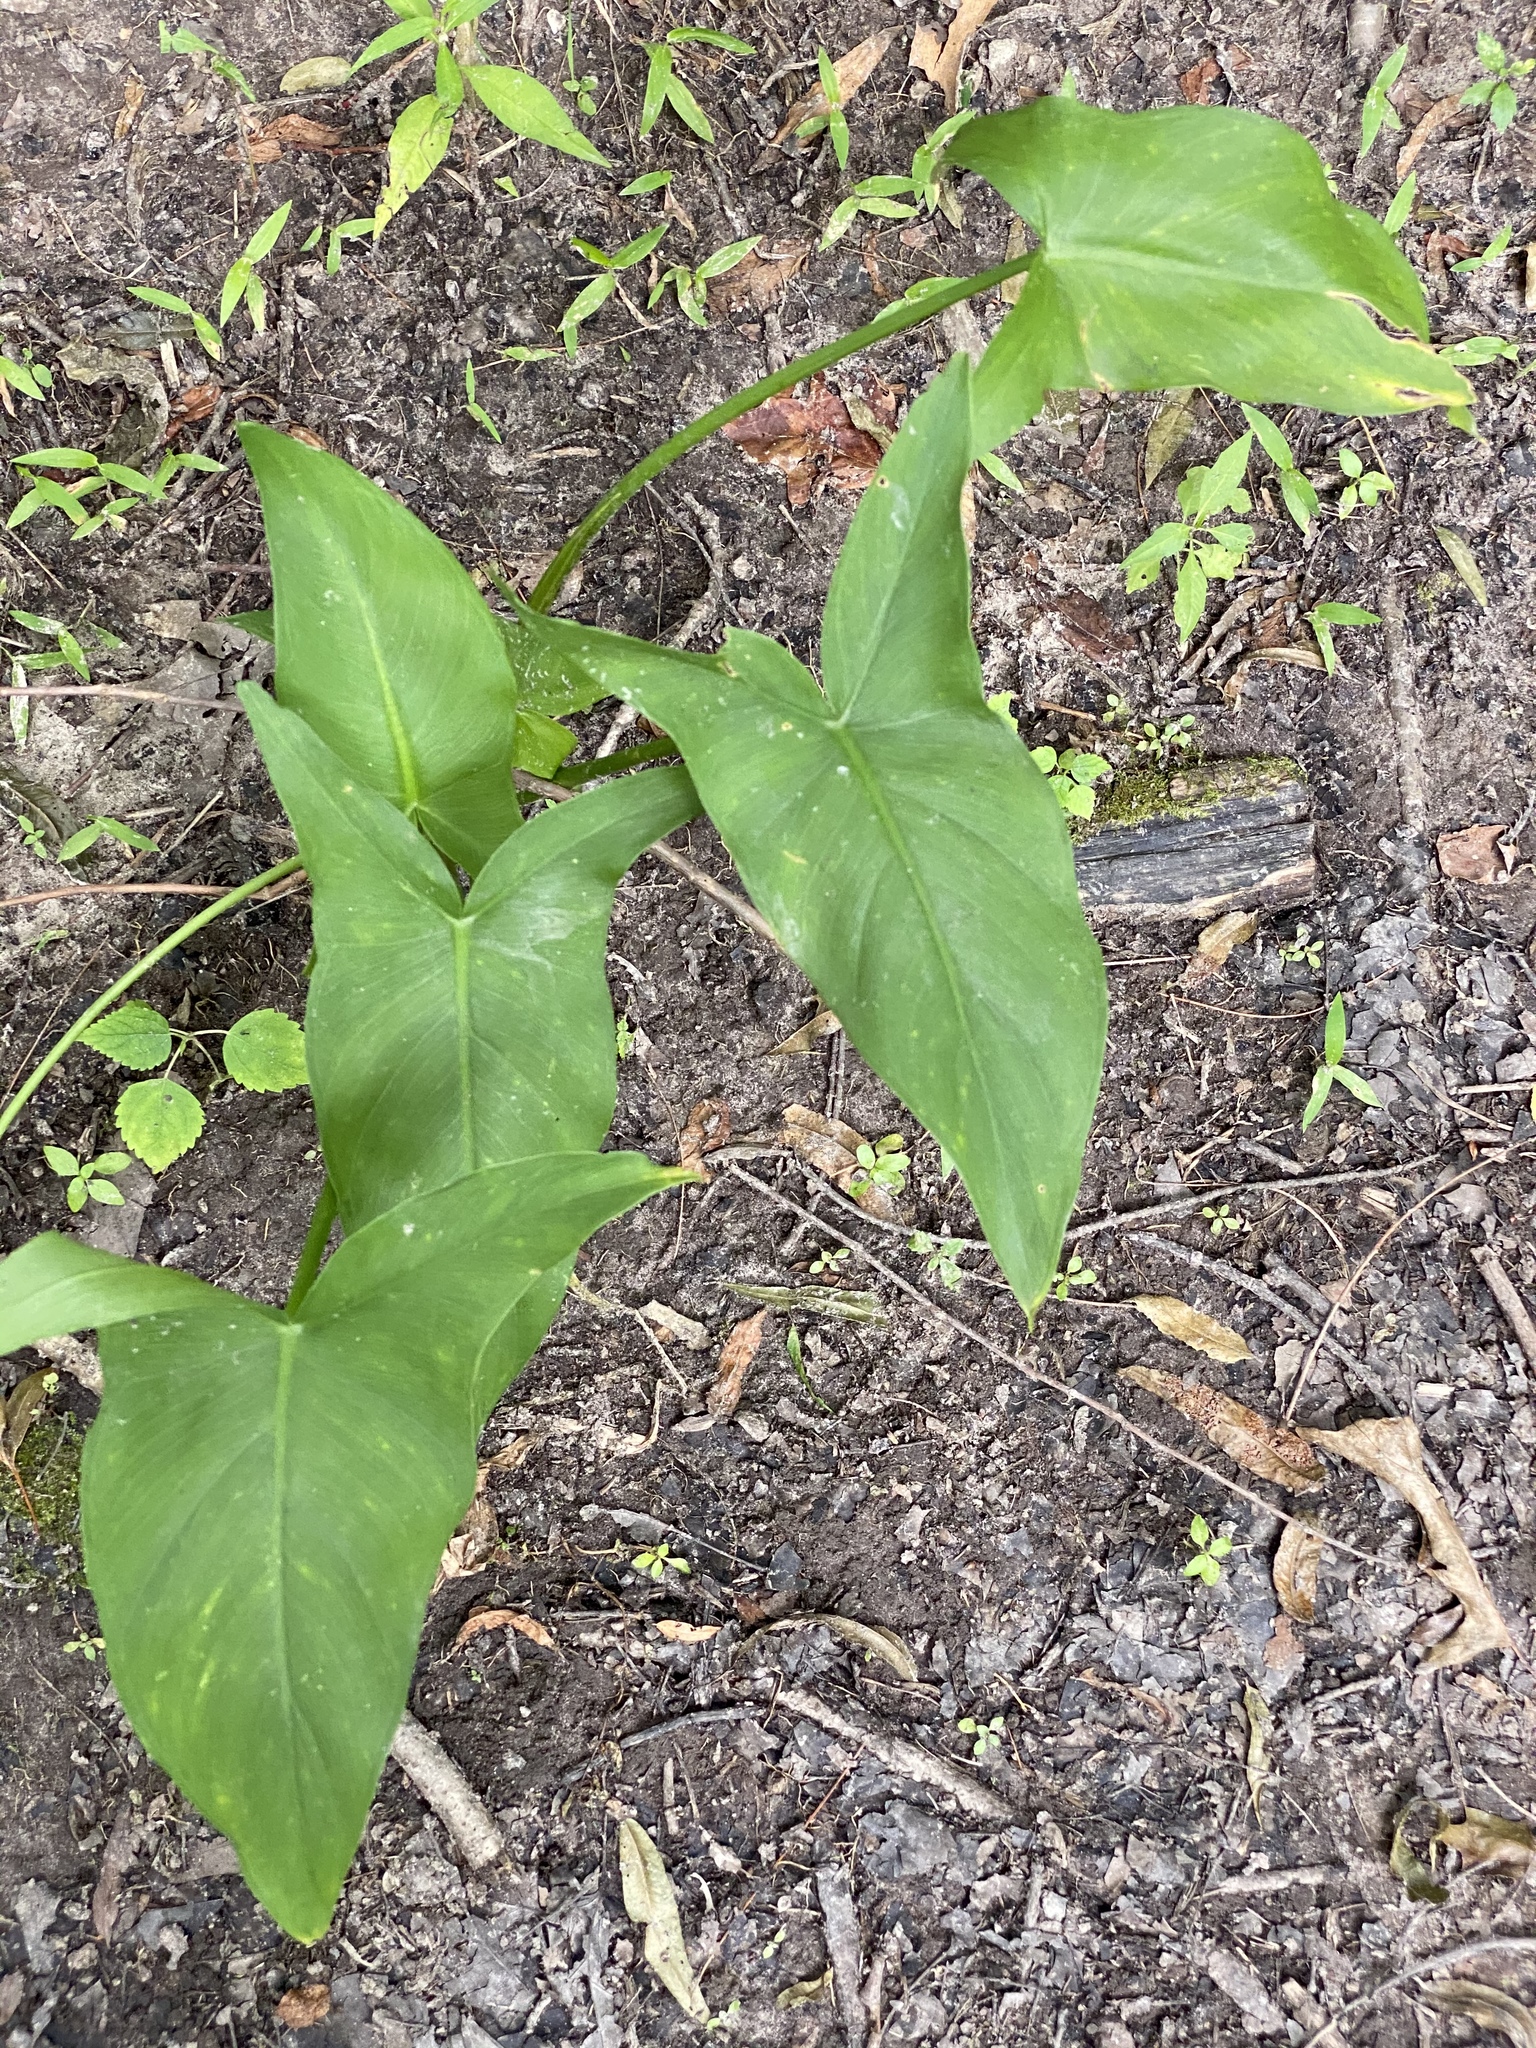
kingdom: Plantae
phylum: Tracheophyta
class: Liliopsida
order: Alismatales
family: Araceae
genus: Peltandra
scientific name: Peltandra virginica
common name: Arrow arum
